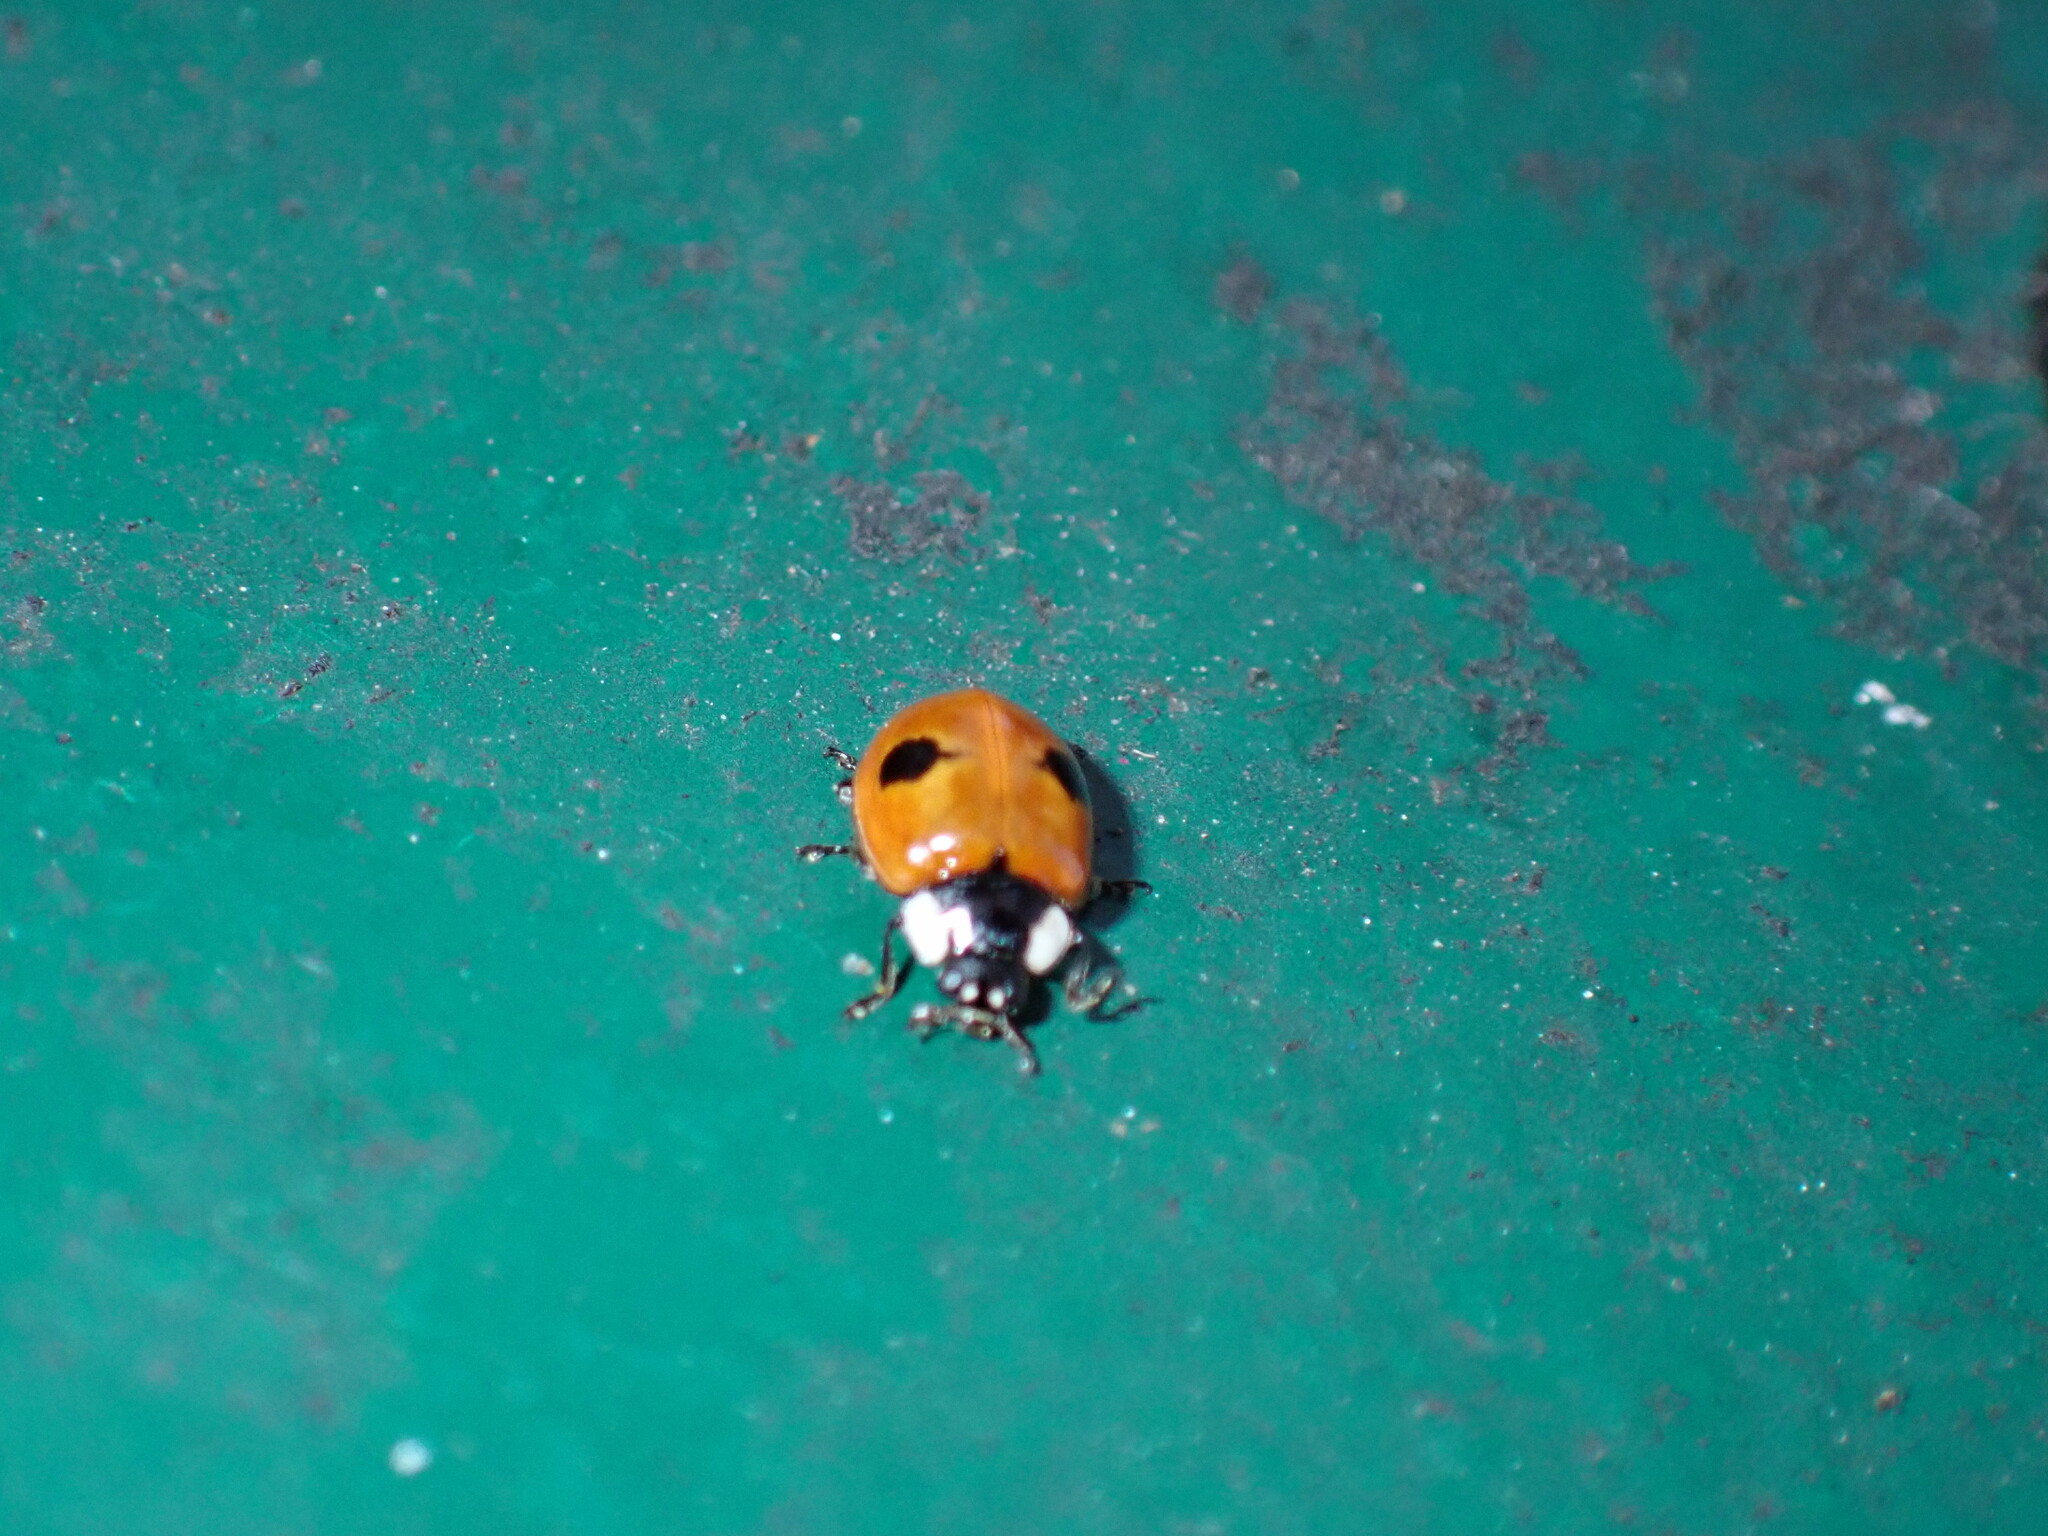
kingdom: Animalia
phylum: Arthropoda
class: Insecta
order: Coleoptera
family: Coccinellidae
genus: Adalia
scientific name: Adalia bipunctata
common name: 2-spot ladybird
